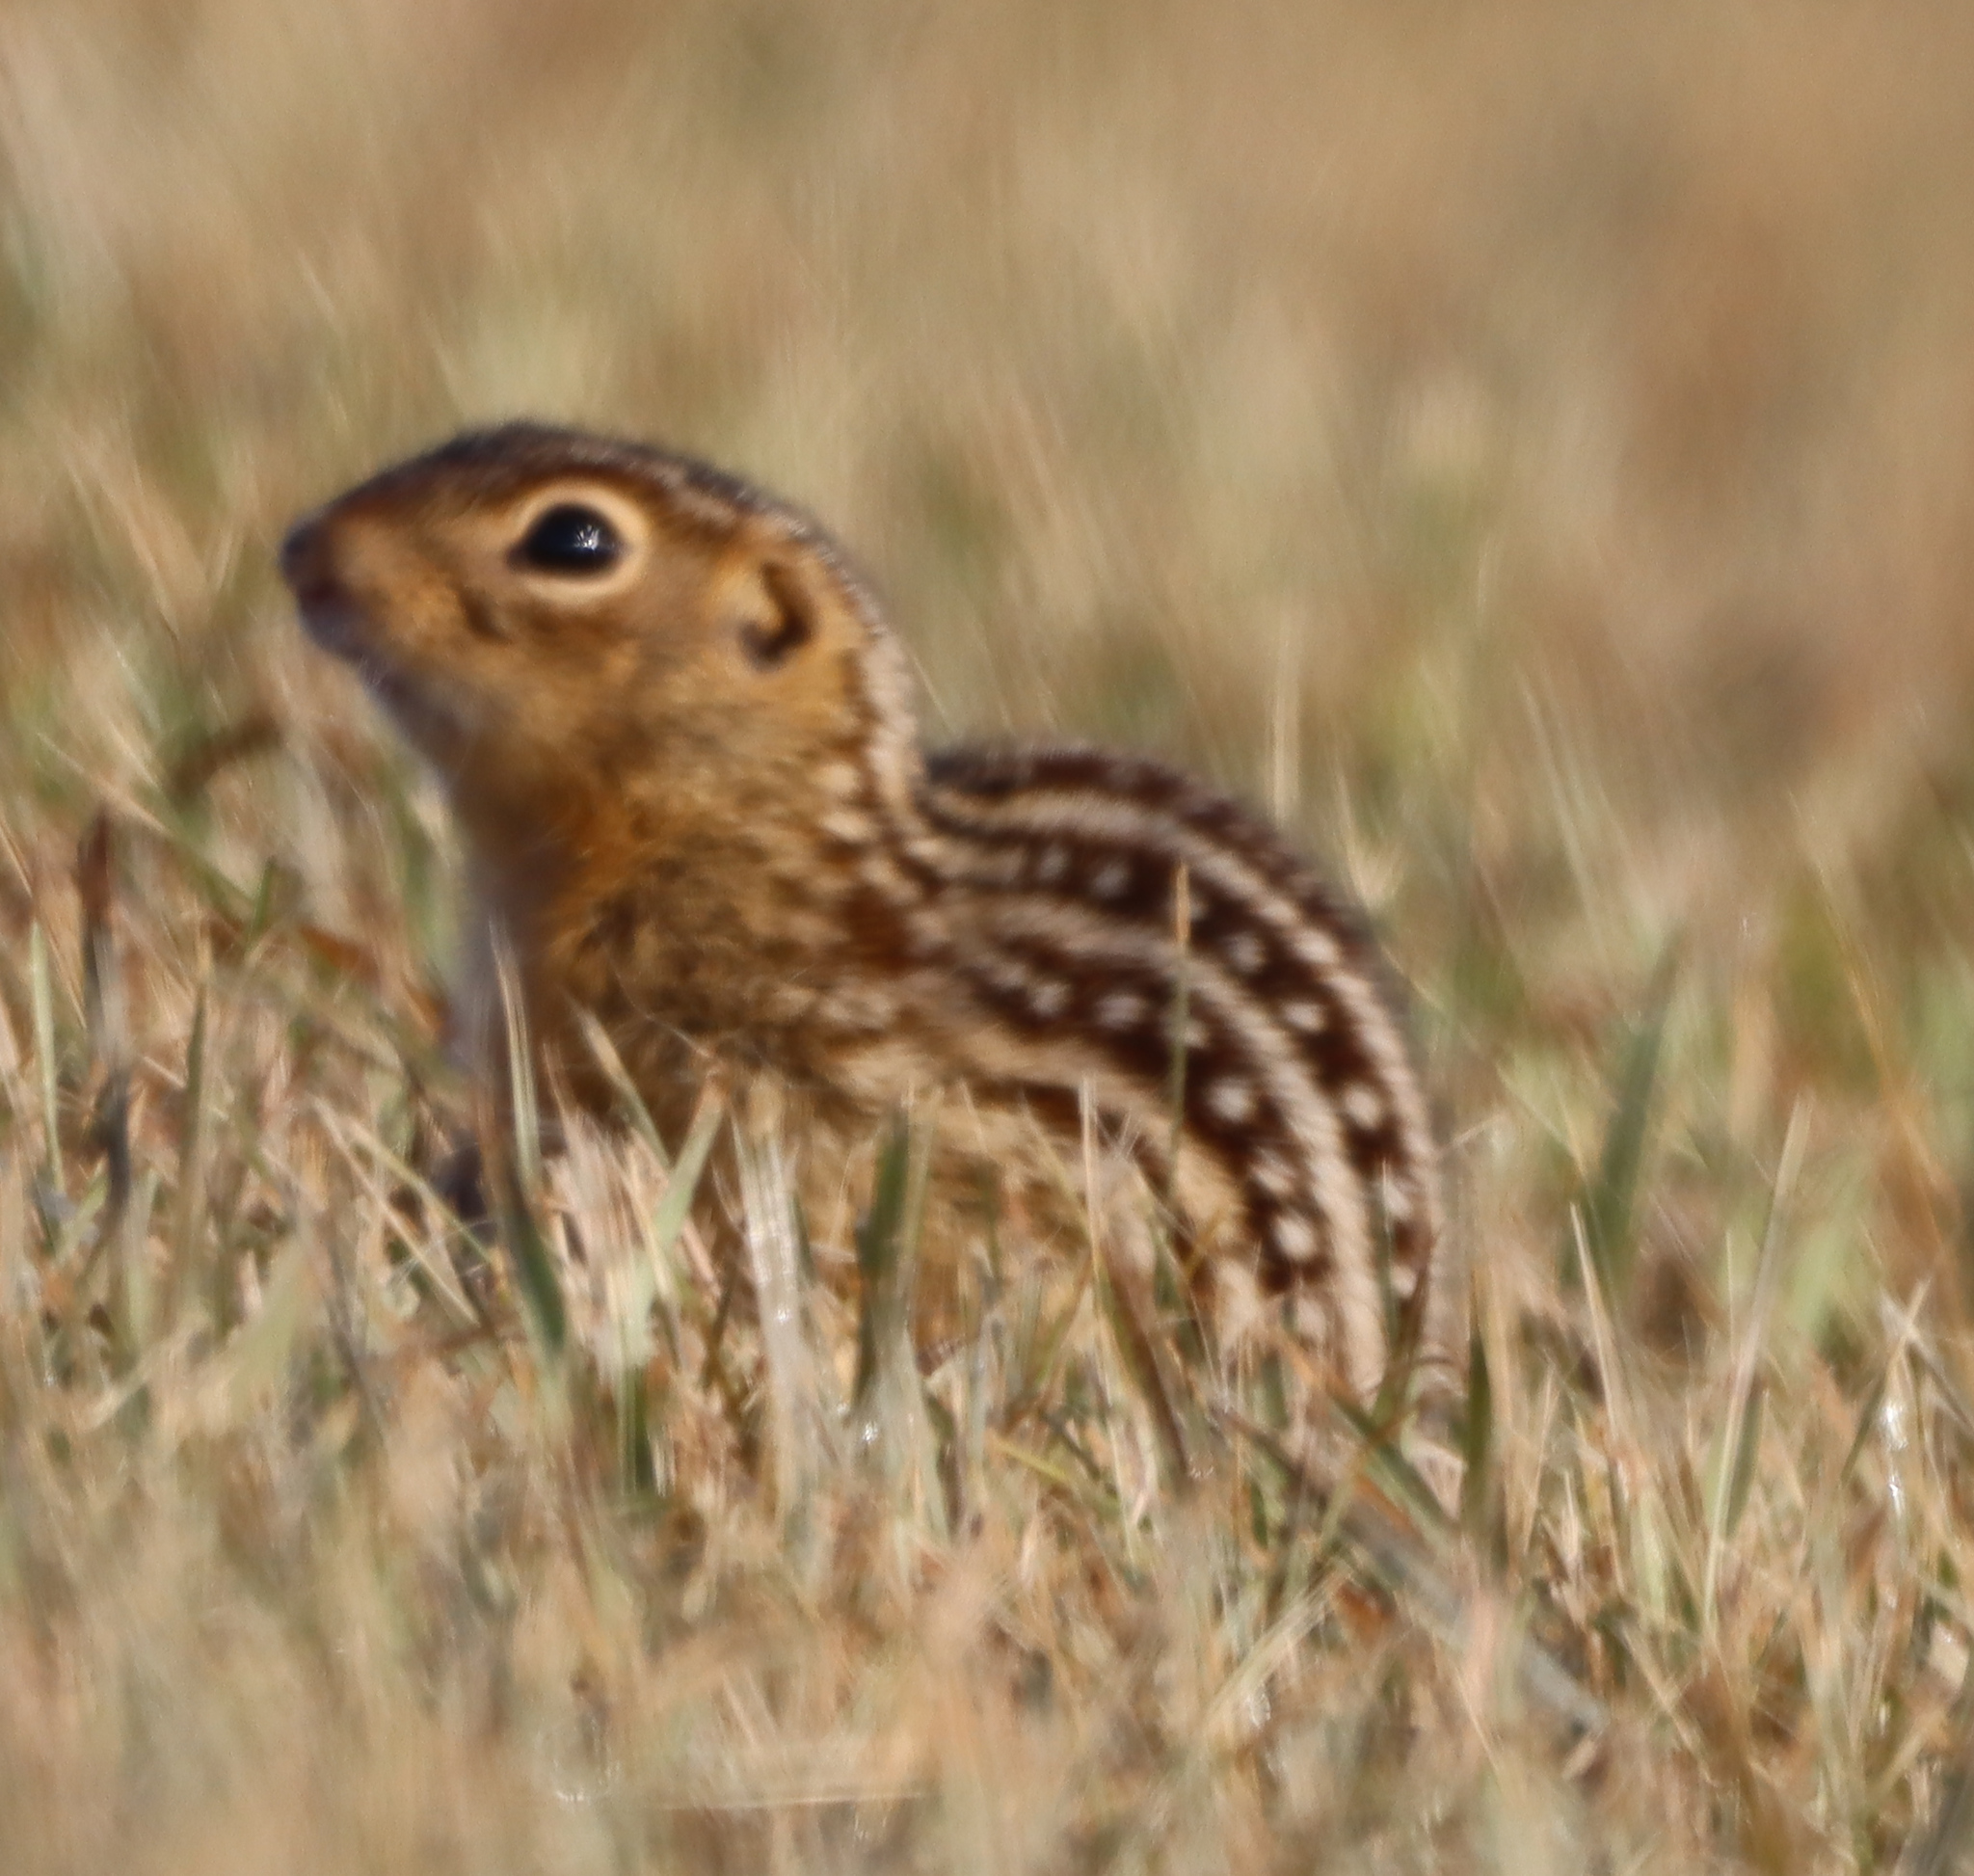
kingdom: Animalia
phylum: Chordata
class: Mammalia
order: Rodentia
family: Sciuridae
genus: Ictidomys
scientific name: Ictidomys tridecemlineatus
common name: Thirteen-lined ground squirrel
